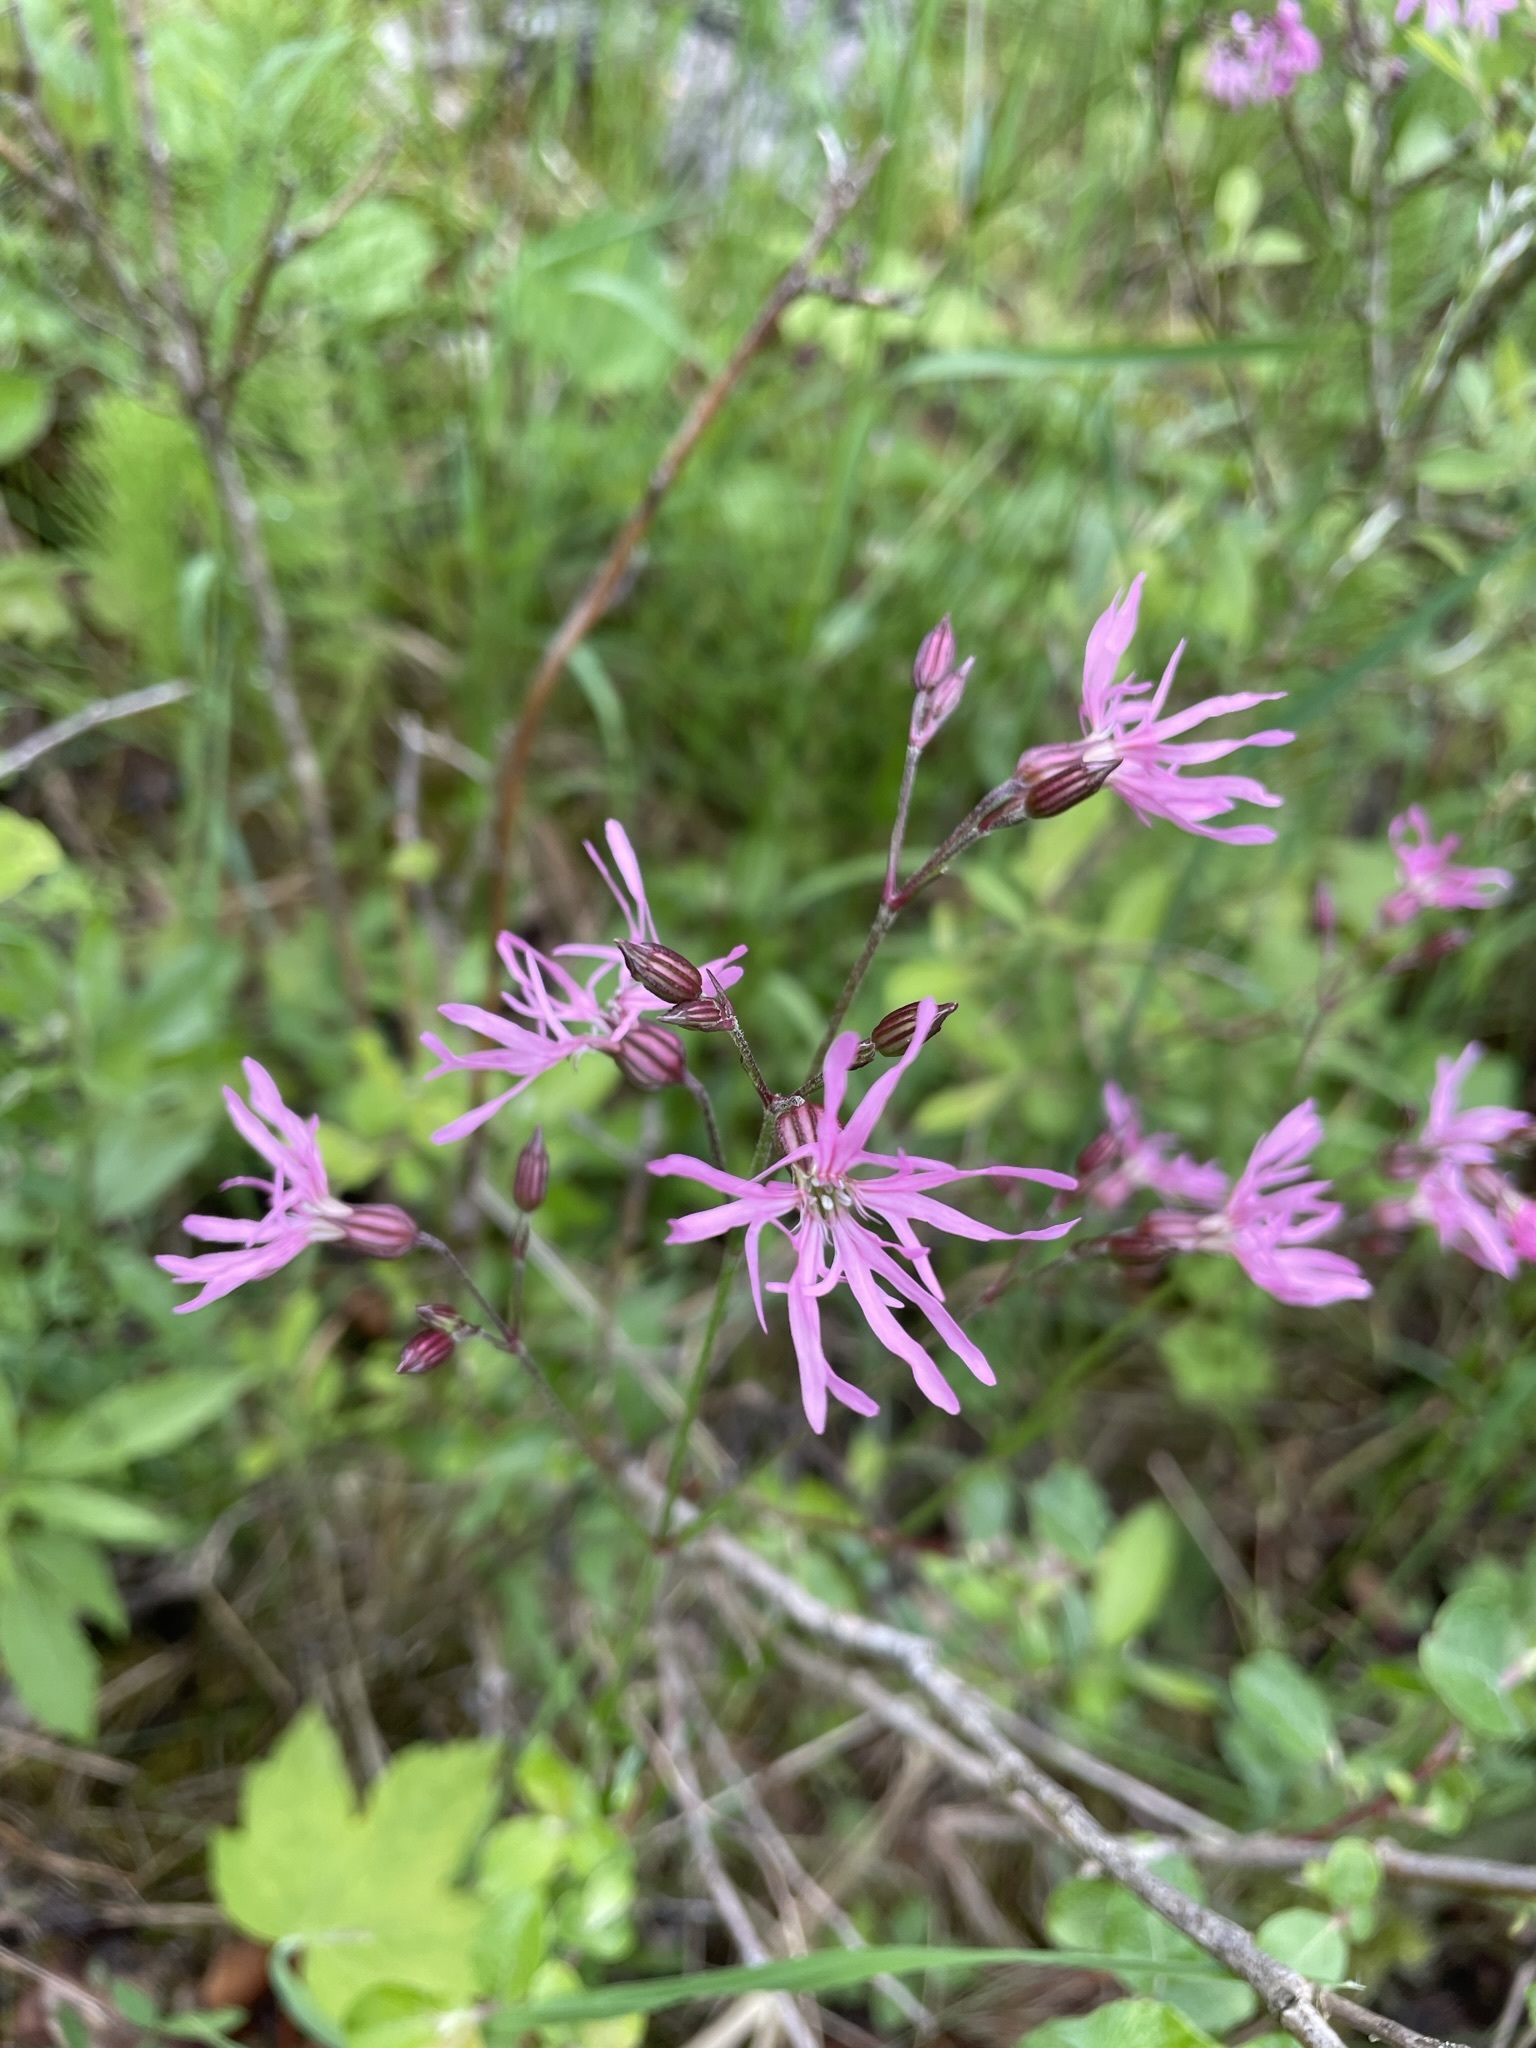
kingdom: Plantae
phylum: Tracheophyta
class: Magnoliopsida
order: Caryophyllales
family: Caryophyllaceae
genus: Silene
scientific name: Silene flos-cuculi
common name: Ragged-robin
